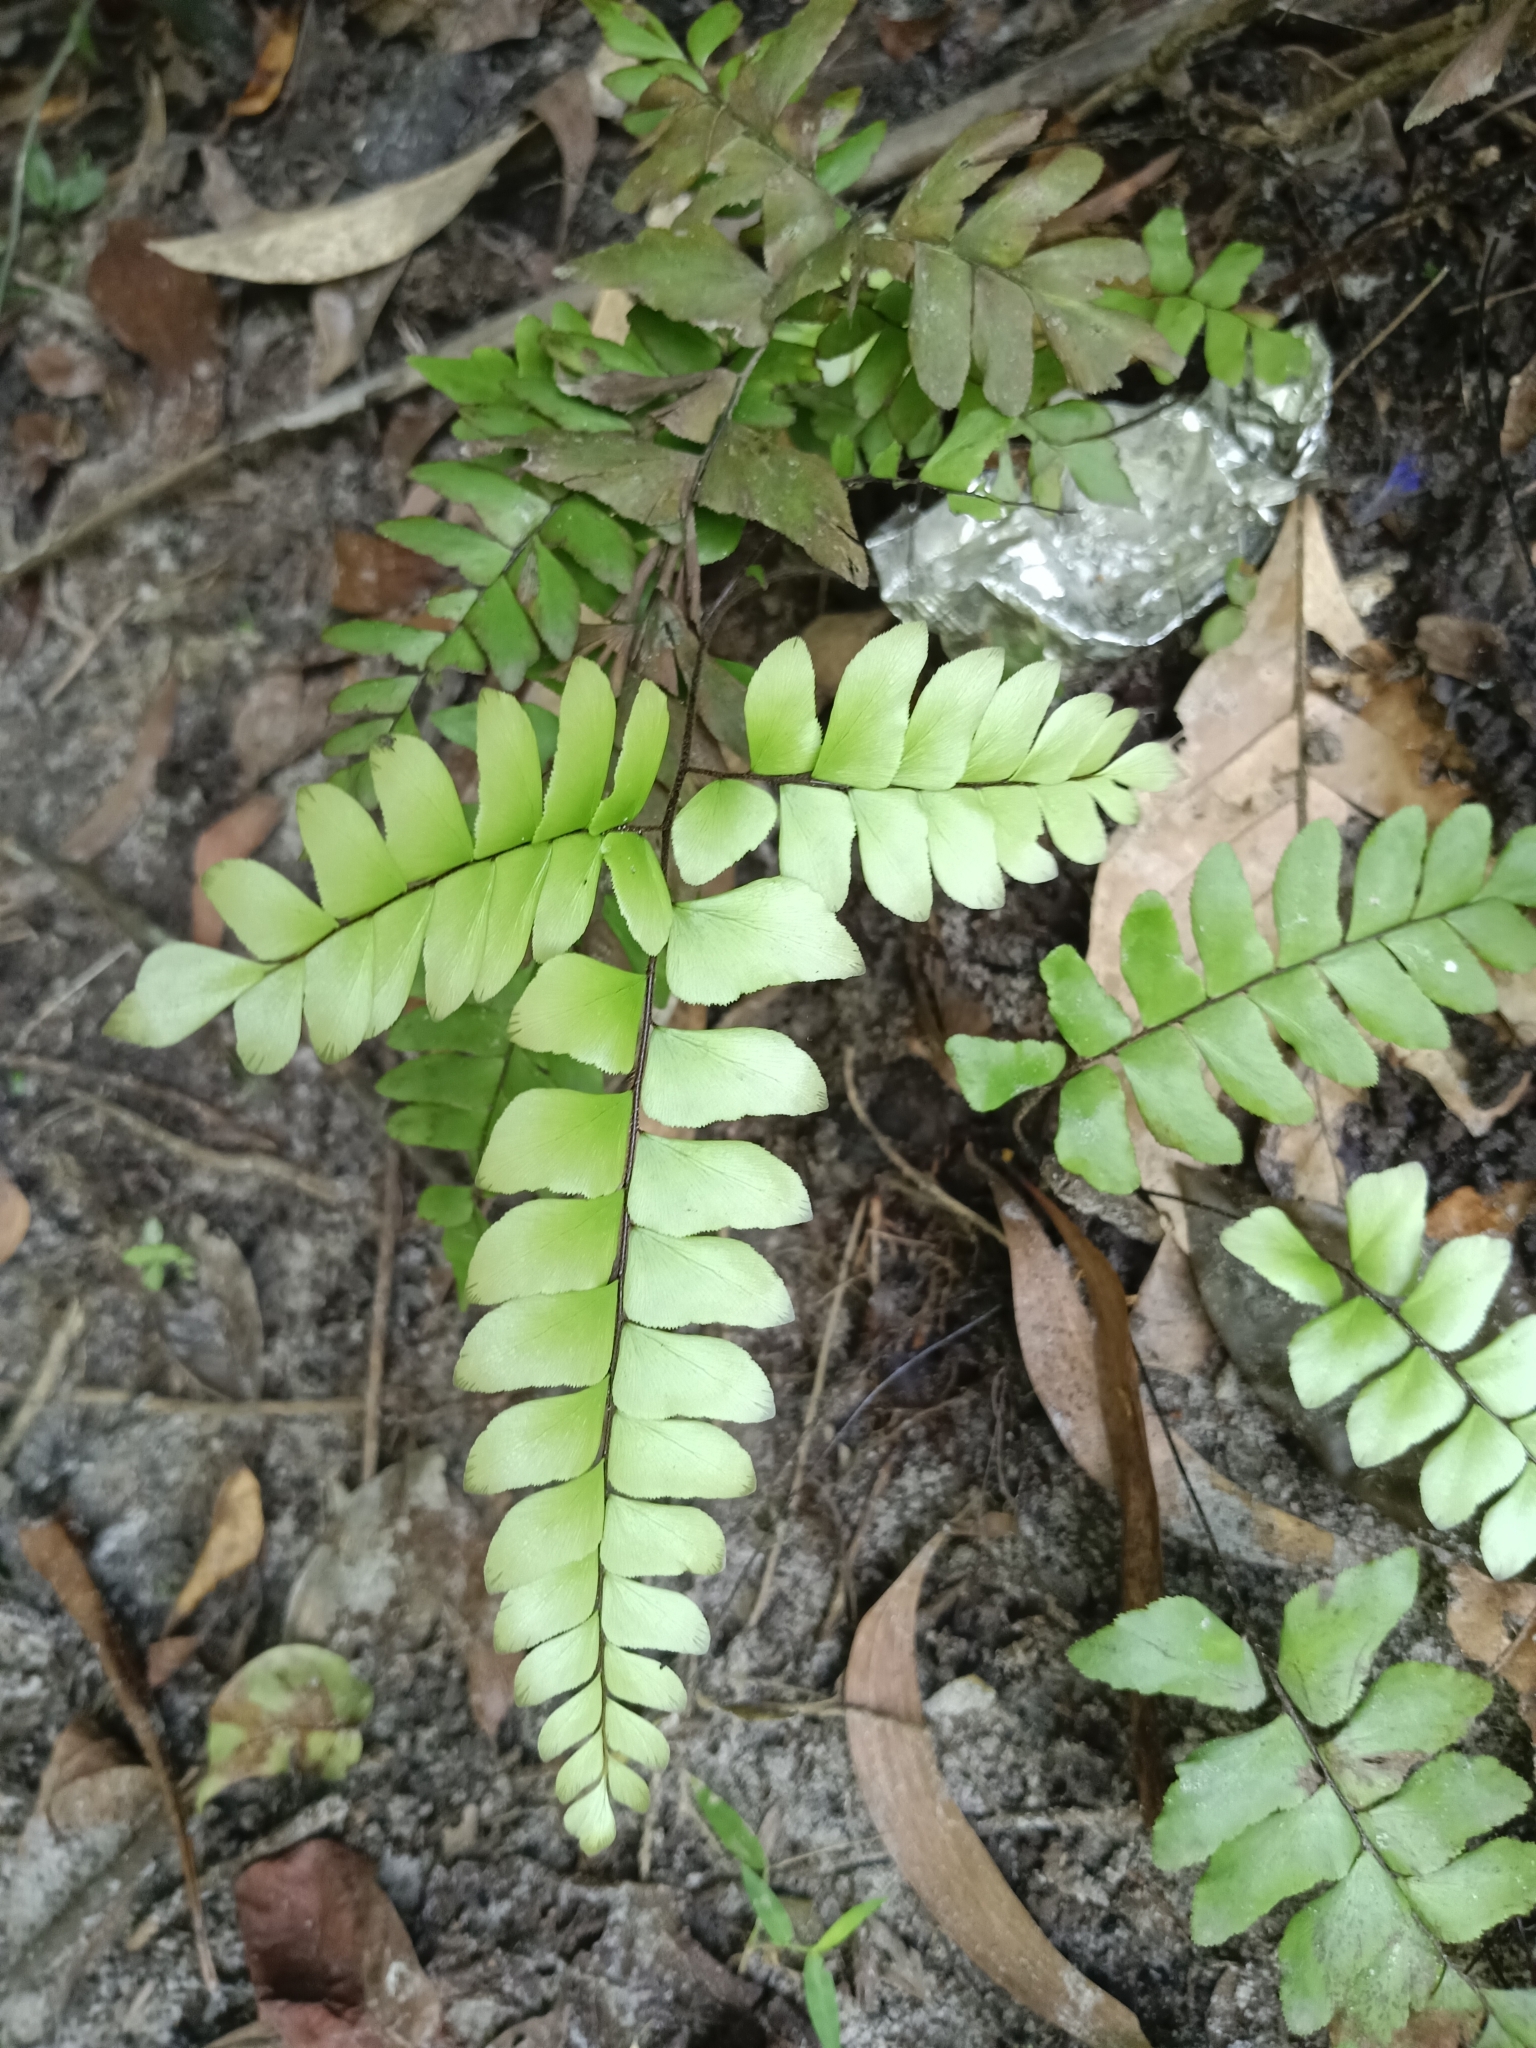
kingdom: Plantae
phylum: Tracheophyta
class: Polypodiopsida
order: Polypodiales
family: Pteridaceae
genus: Adiantum
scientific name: Adiantum latifolium
